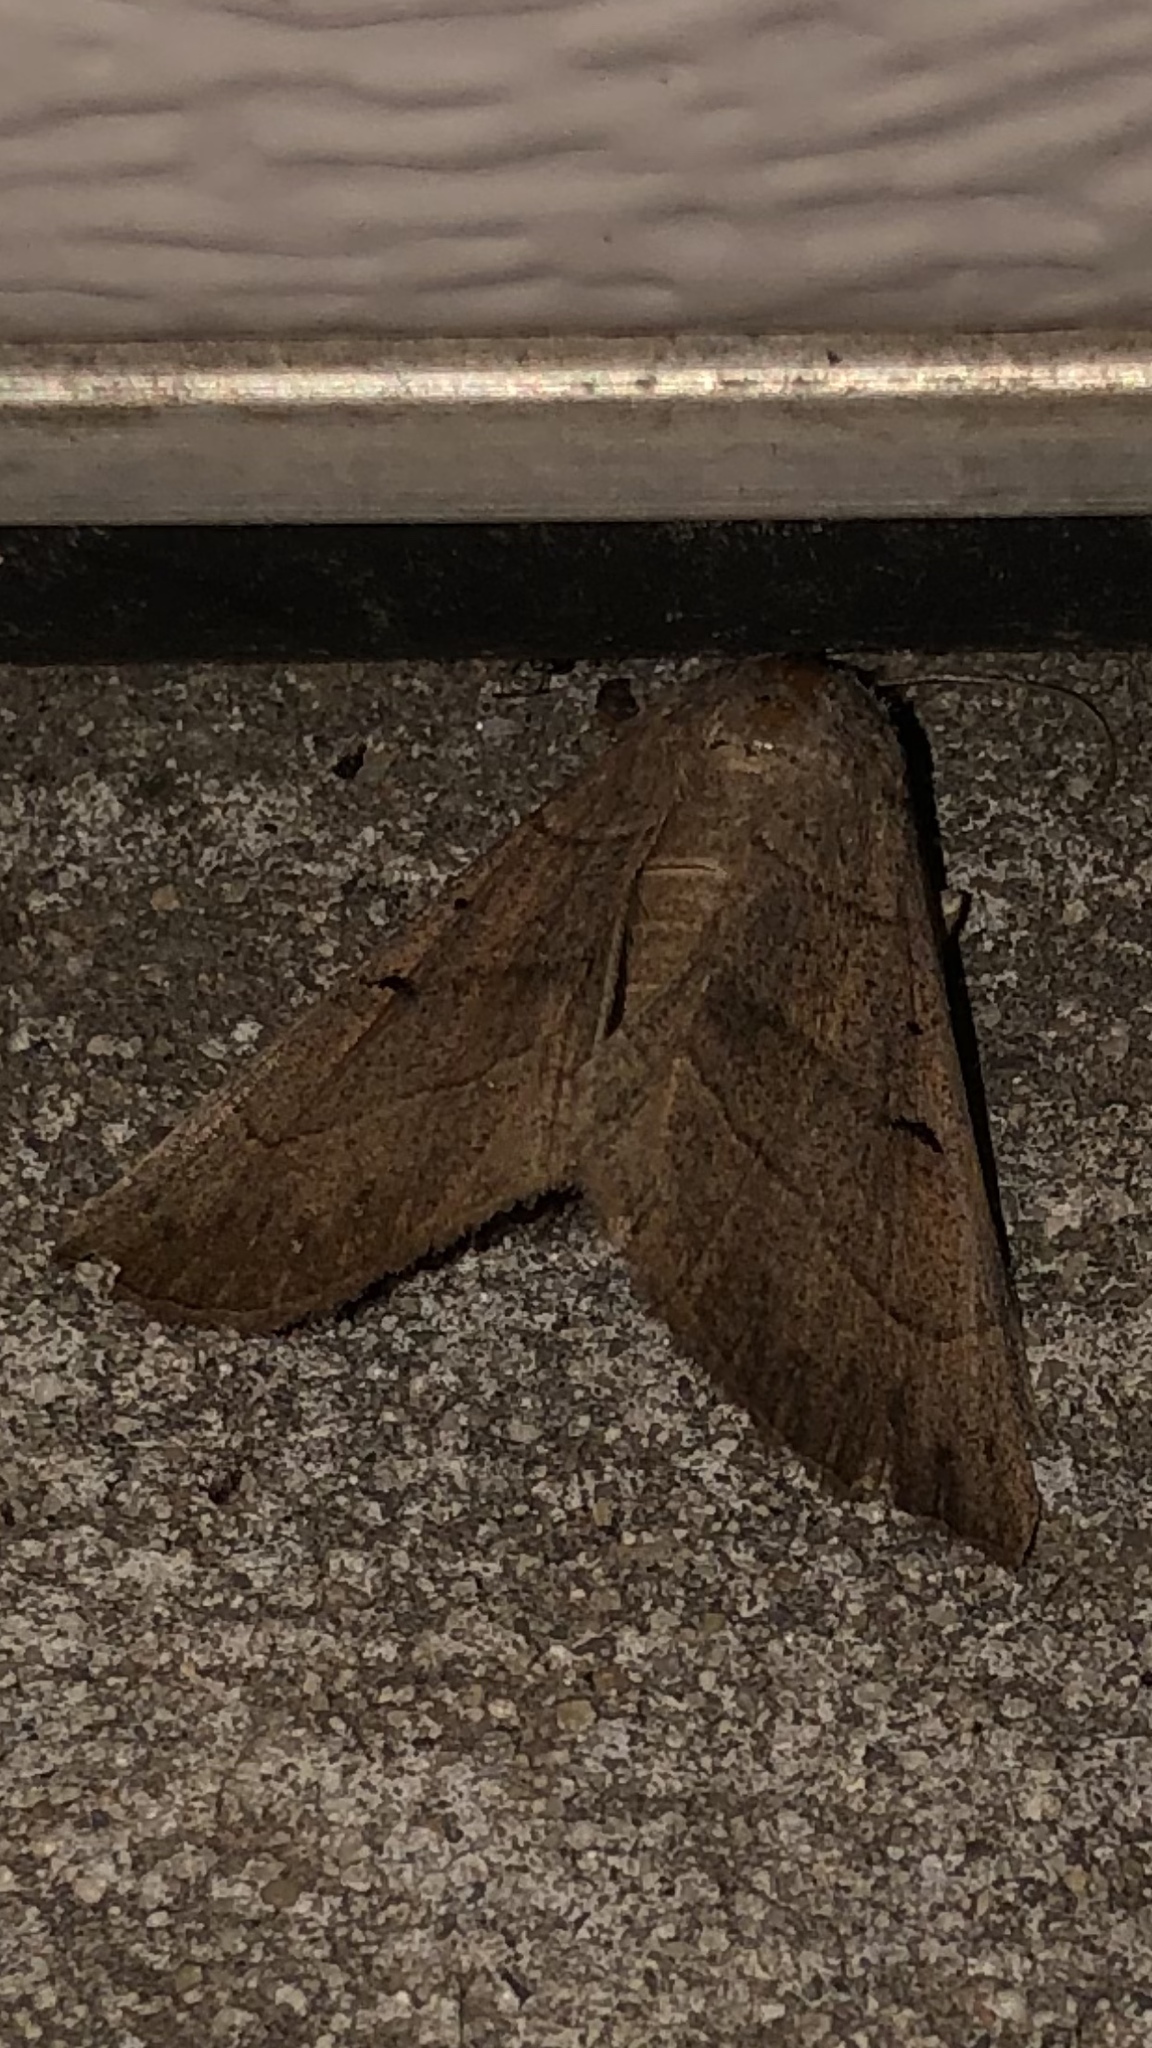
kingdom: Animalia
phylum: Arthropoda
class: Insecta
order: Lepidoptera
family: Erebidae
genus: Panopoda
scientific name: Panopoda carneicosta
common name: Brown panopoda moth
